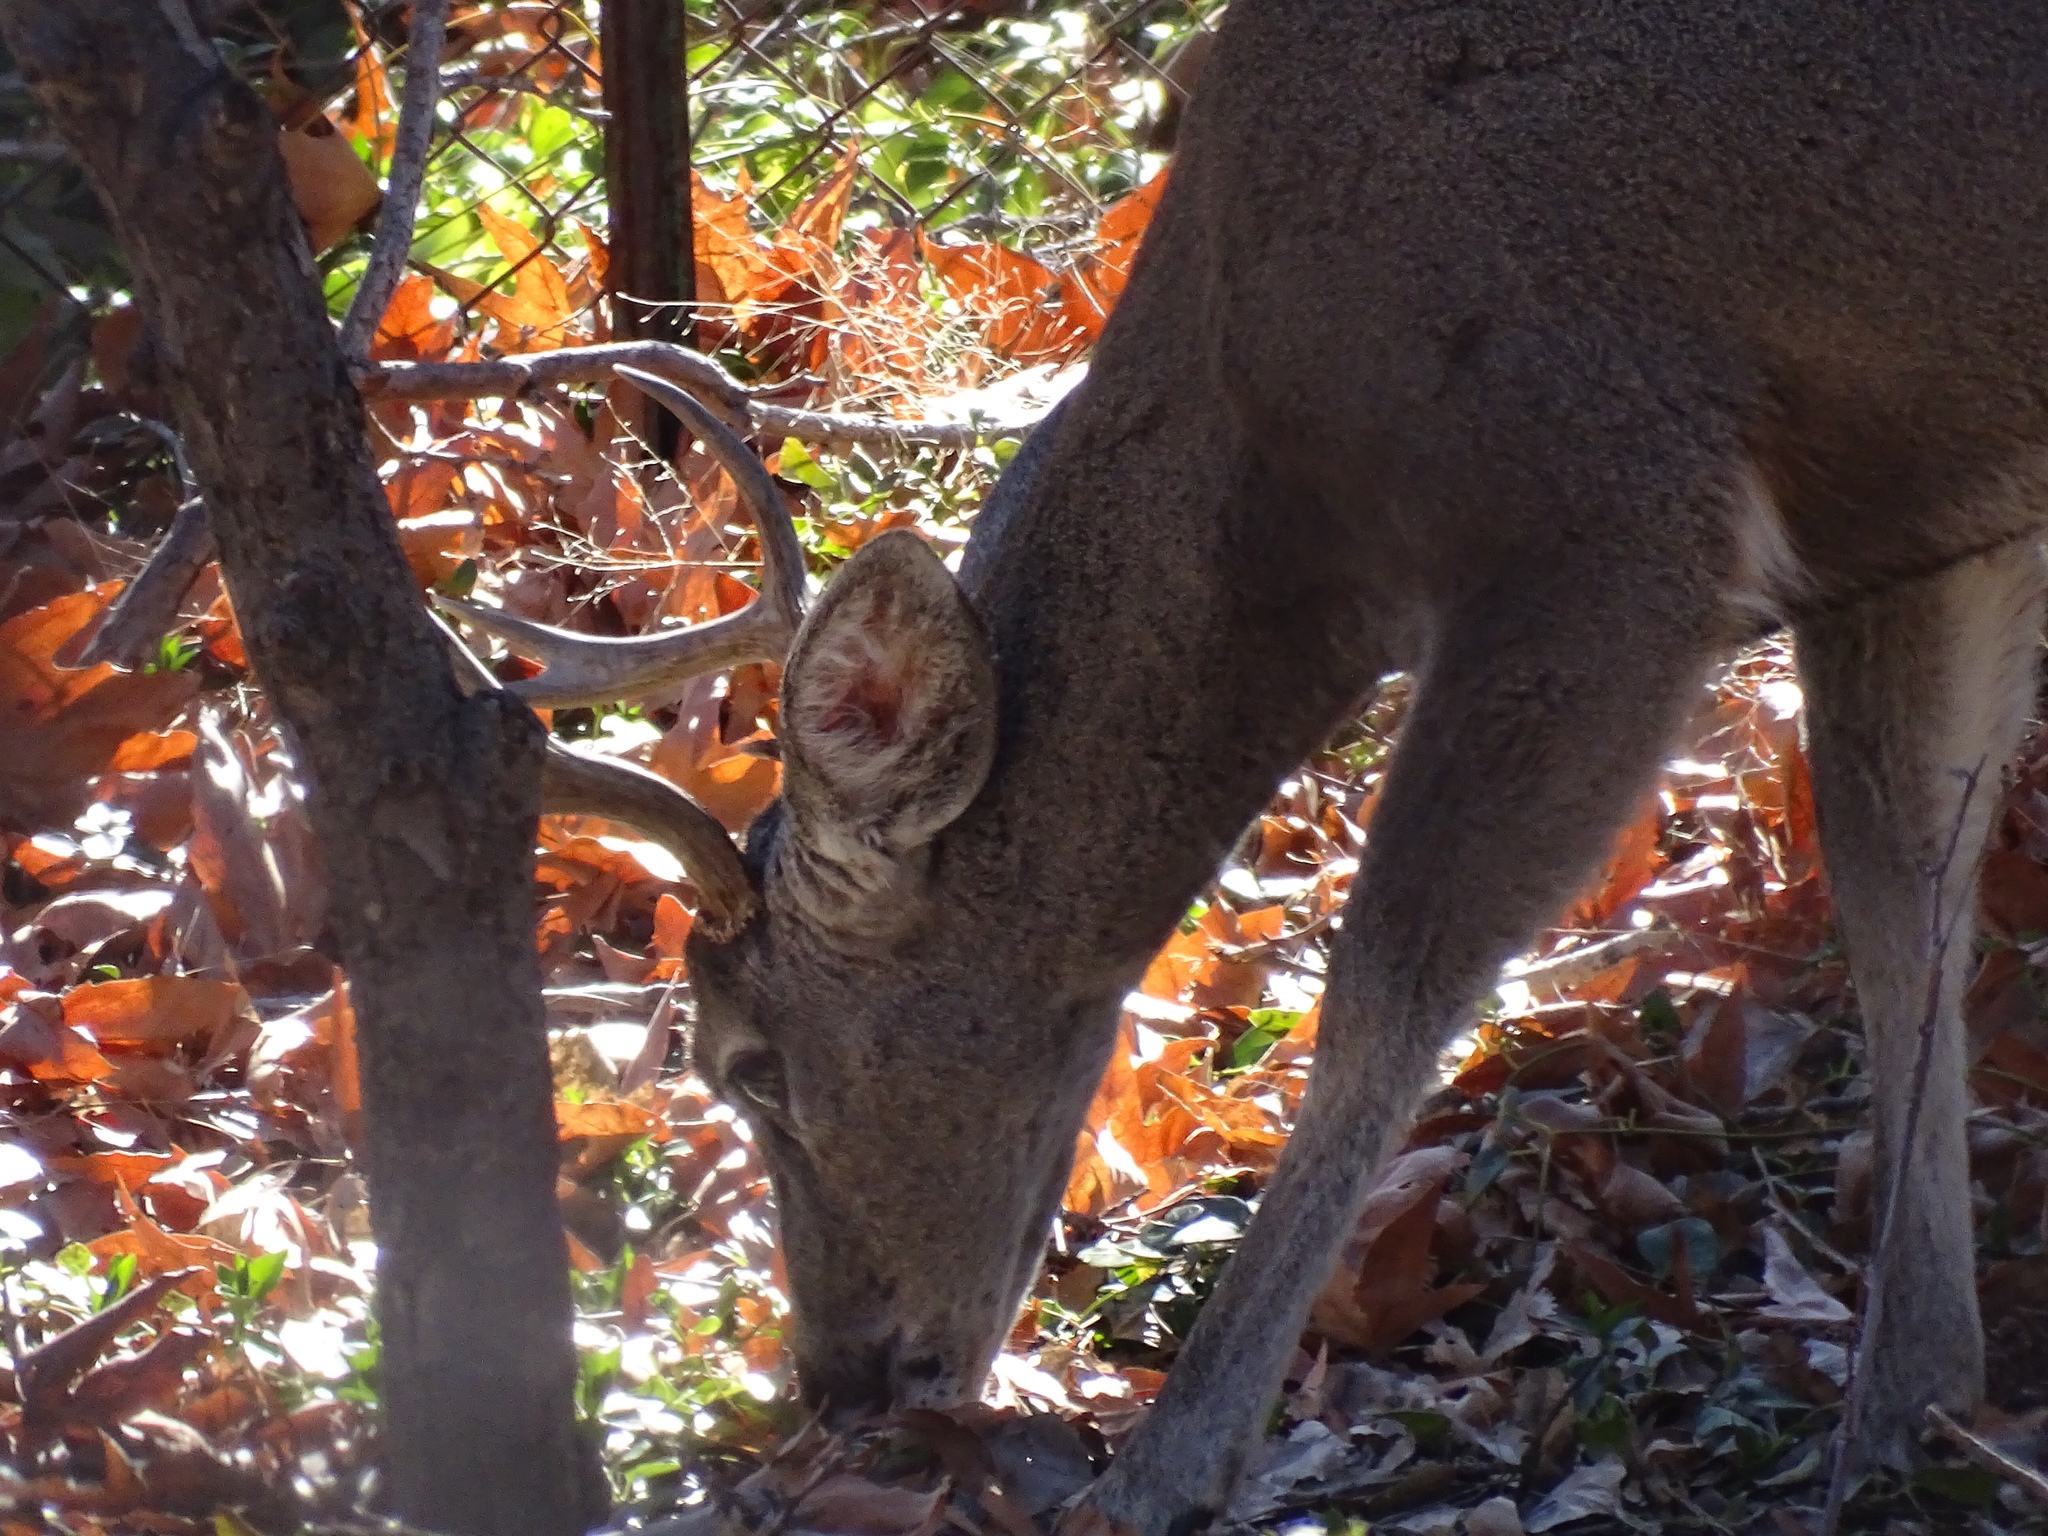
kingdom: Animalia
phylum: Chordata
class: Mammalia
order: Artiodactyla
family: Cervidae
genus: Odocoileus
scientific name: Odocoileus virginianus
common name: White-tailed deer
